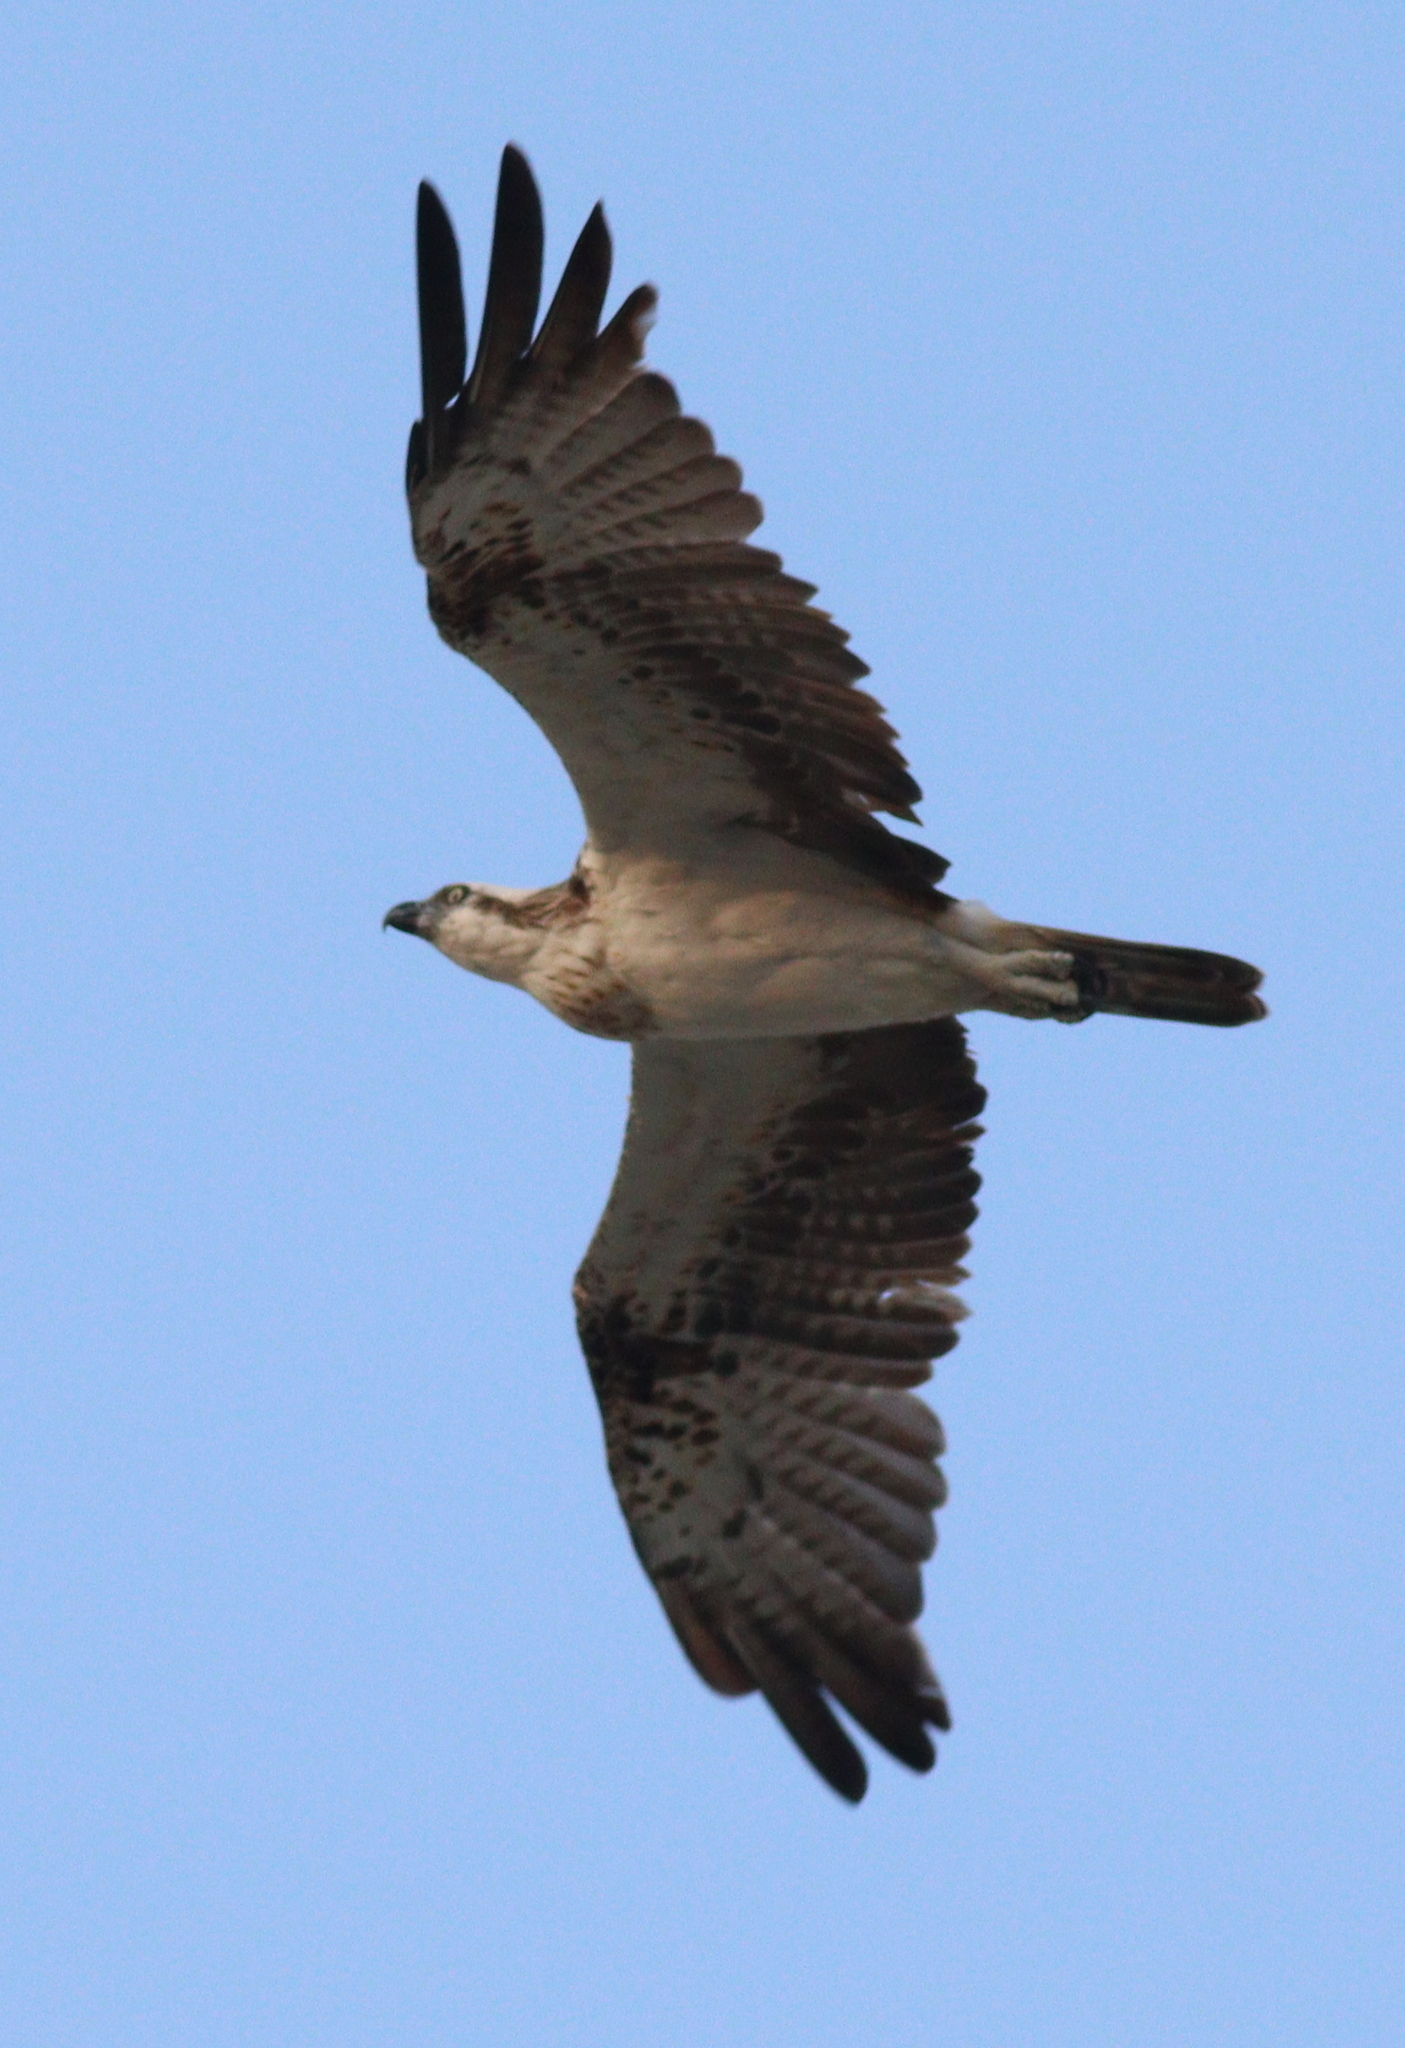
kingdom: Animalia
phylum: Chordata
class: Aves
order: Accipitriformes
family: Pandionidae
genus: Pandion
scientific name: Pandion haliaetus
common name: Osprey
